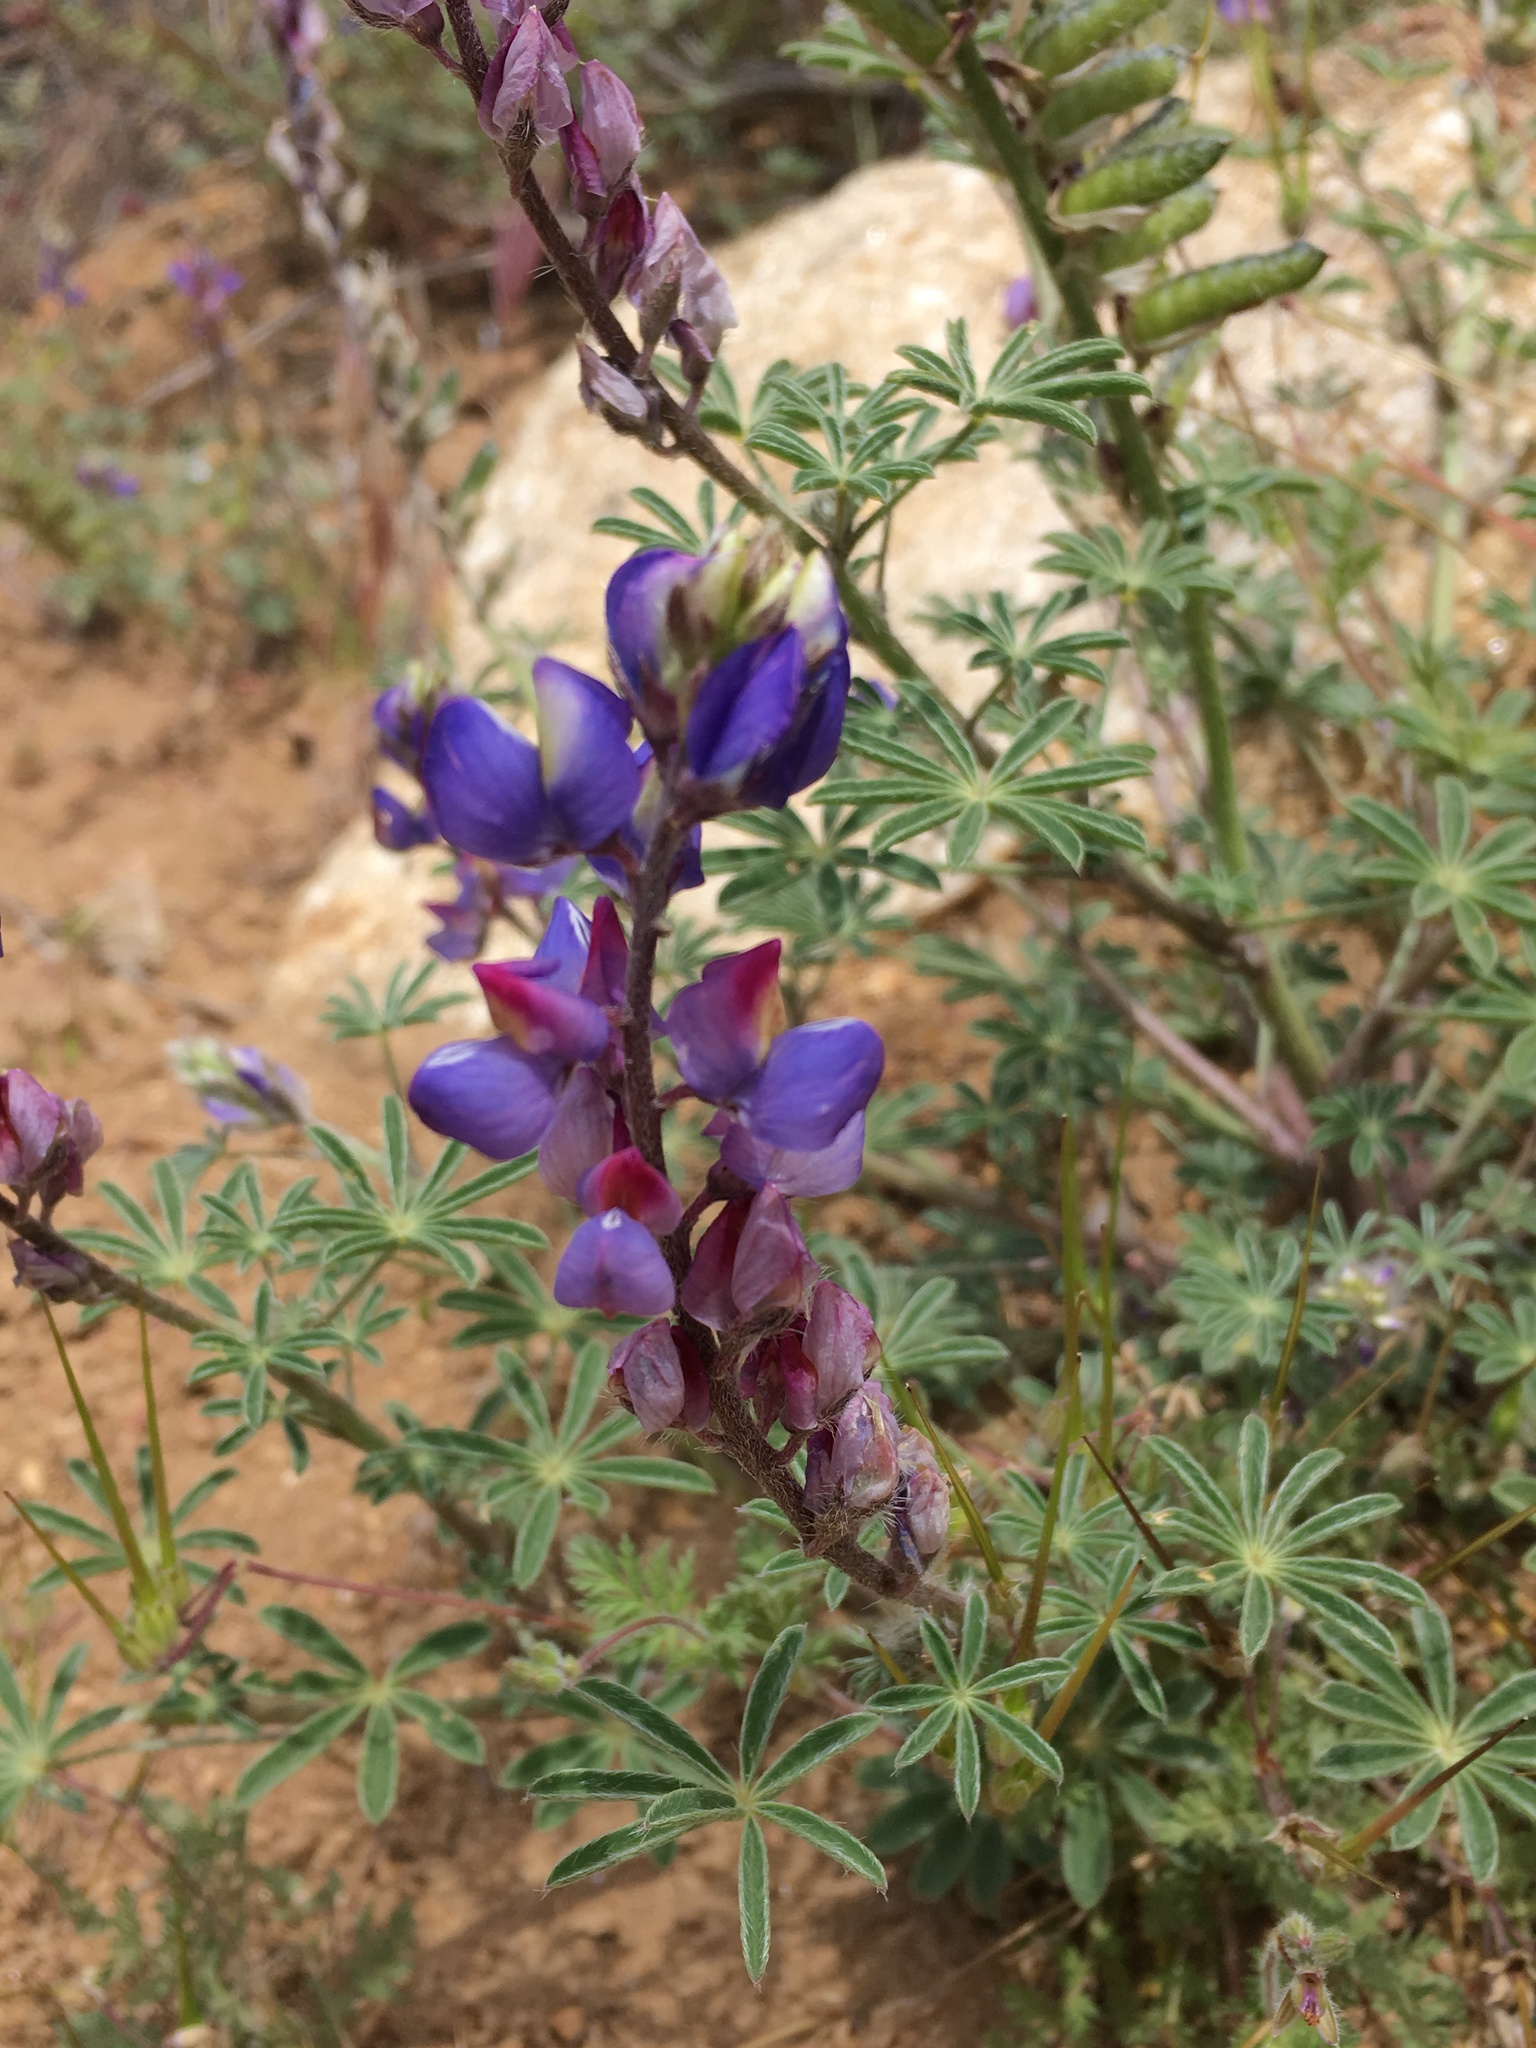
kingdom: Plantae
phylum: Tracheophyta
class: Magnoliopsida
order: Fabales
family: Fabaceae
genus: Lupinus
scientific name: Lupinus sparsiflorus
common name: Coulter's lupine
